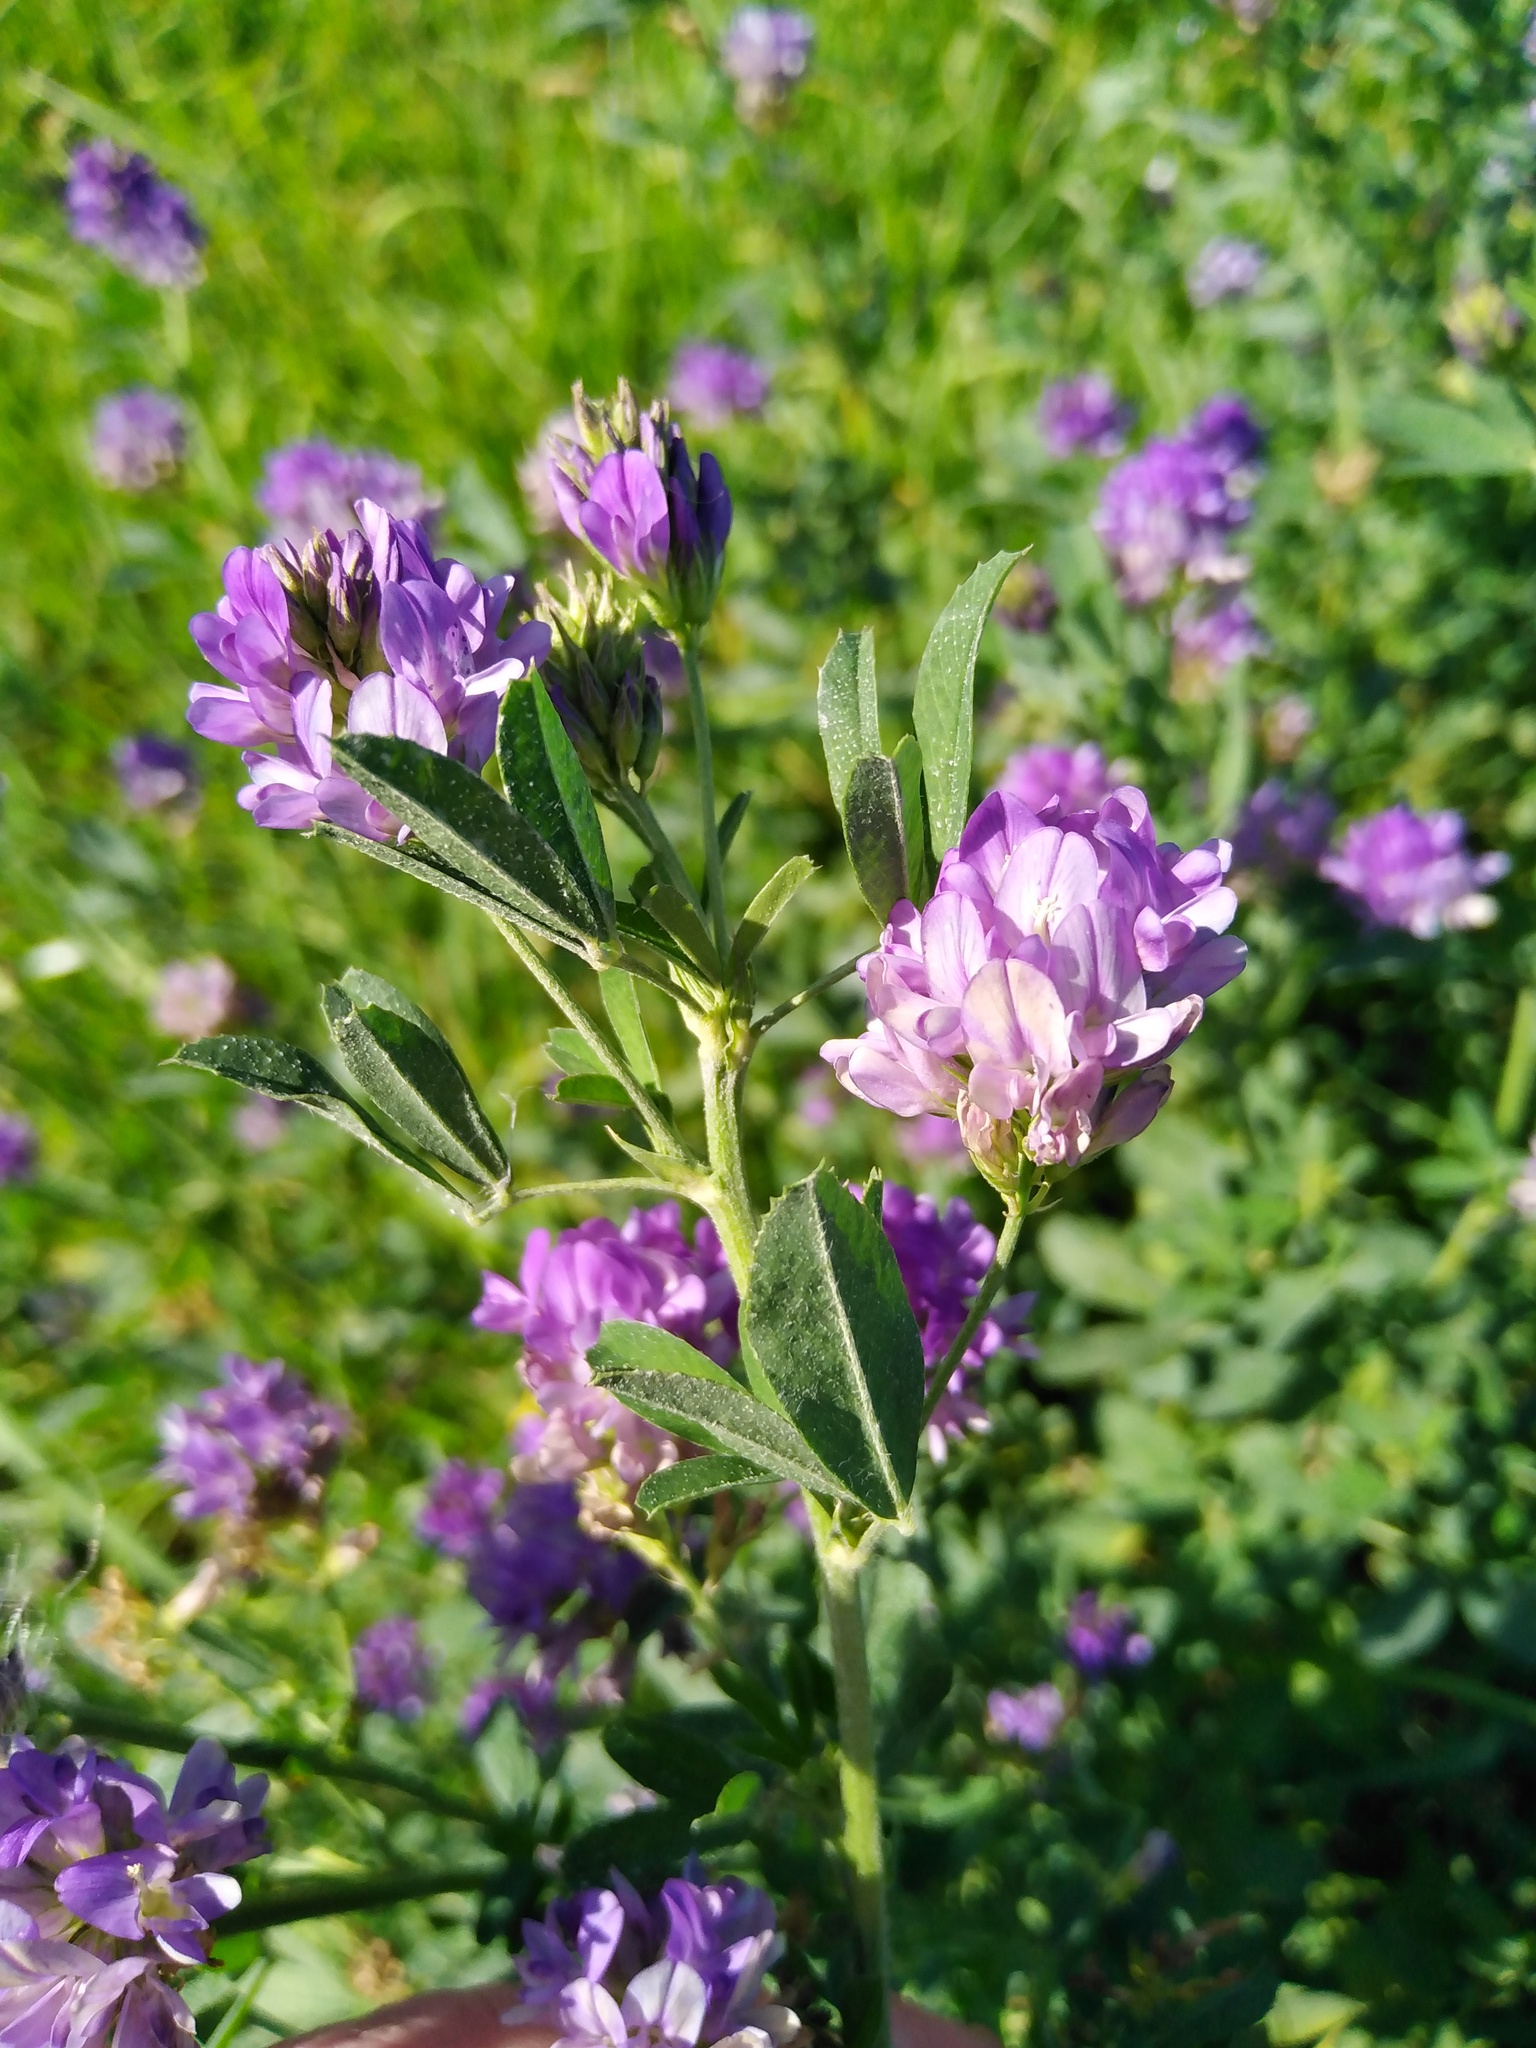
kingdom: Plantae
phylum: Tracheophyta
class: Magnoliopsida
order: Fabales
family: Fabaceae
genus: Medicago
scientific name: Medicago sativa
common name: Alfalfa
